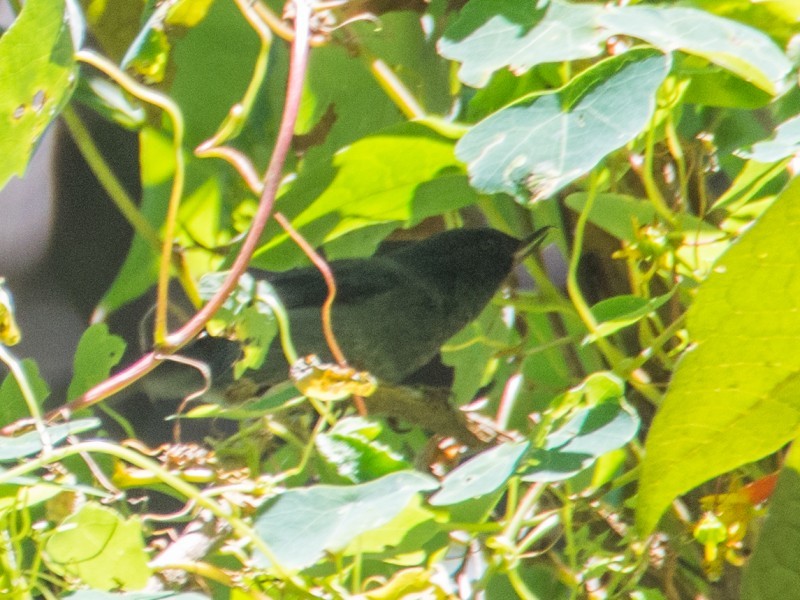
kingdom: Animalia
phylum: Chordata
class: Aves
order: Passeriformes
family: Thraupidae
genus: Diglossa
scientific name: Diglossa plumbea
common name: Slaty flowerpiercer
